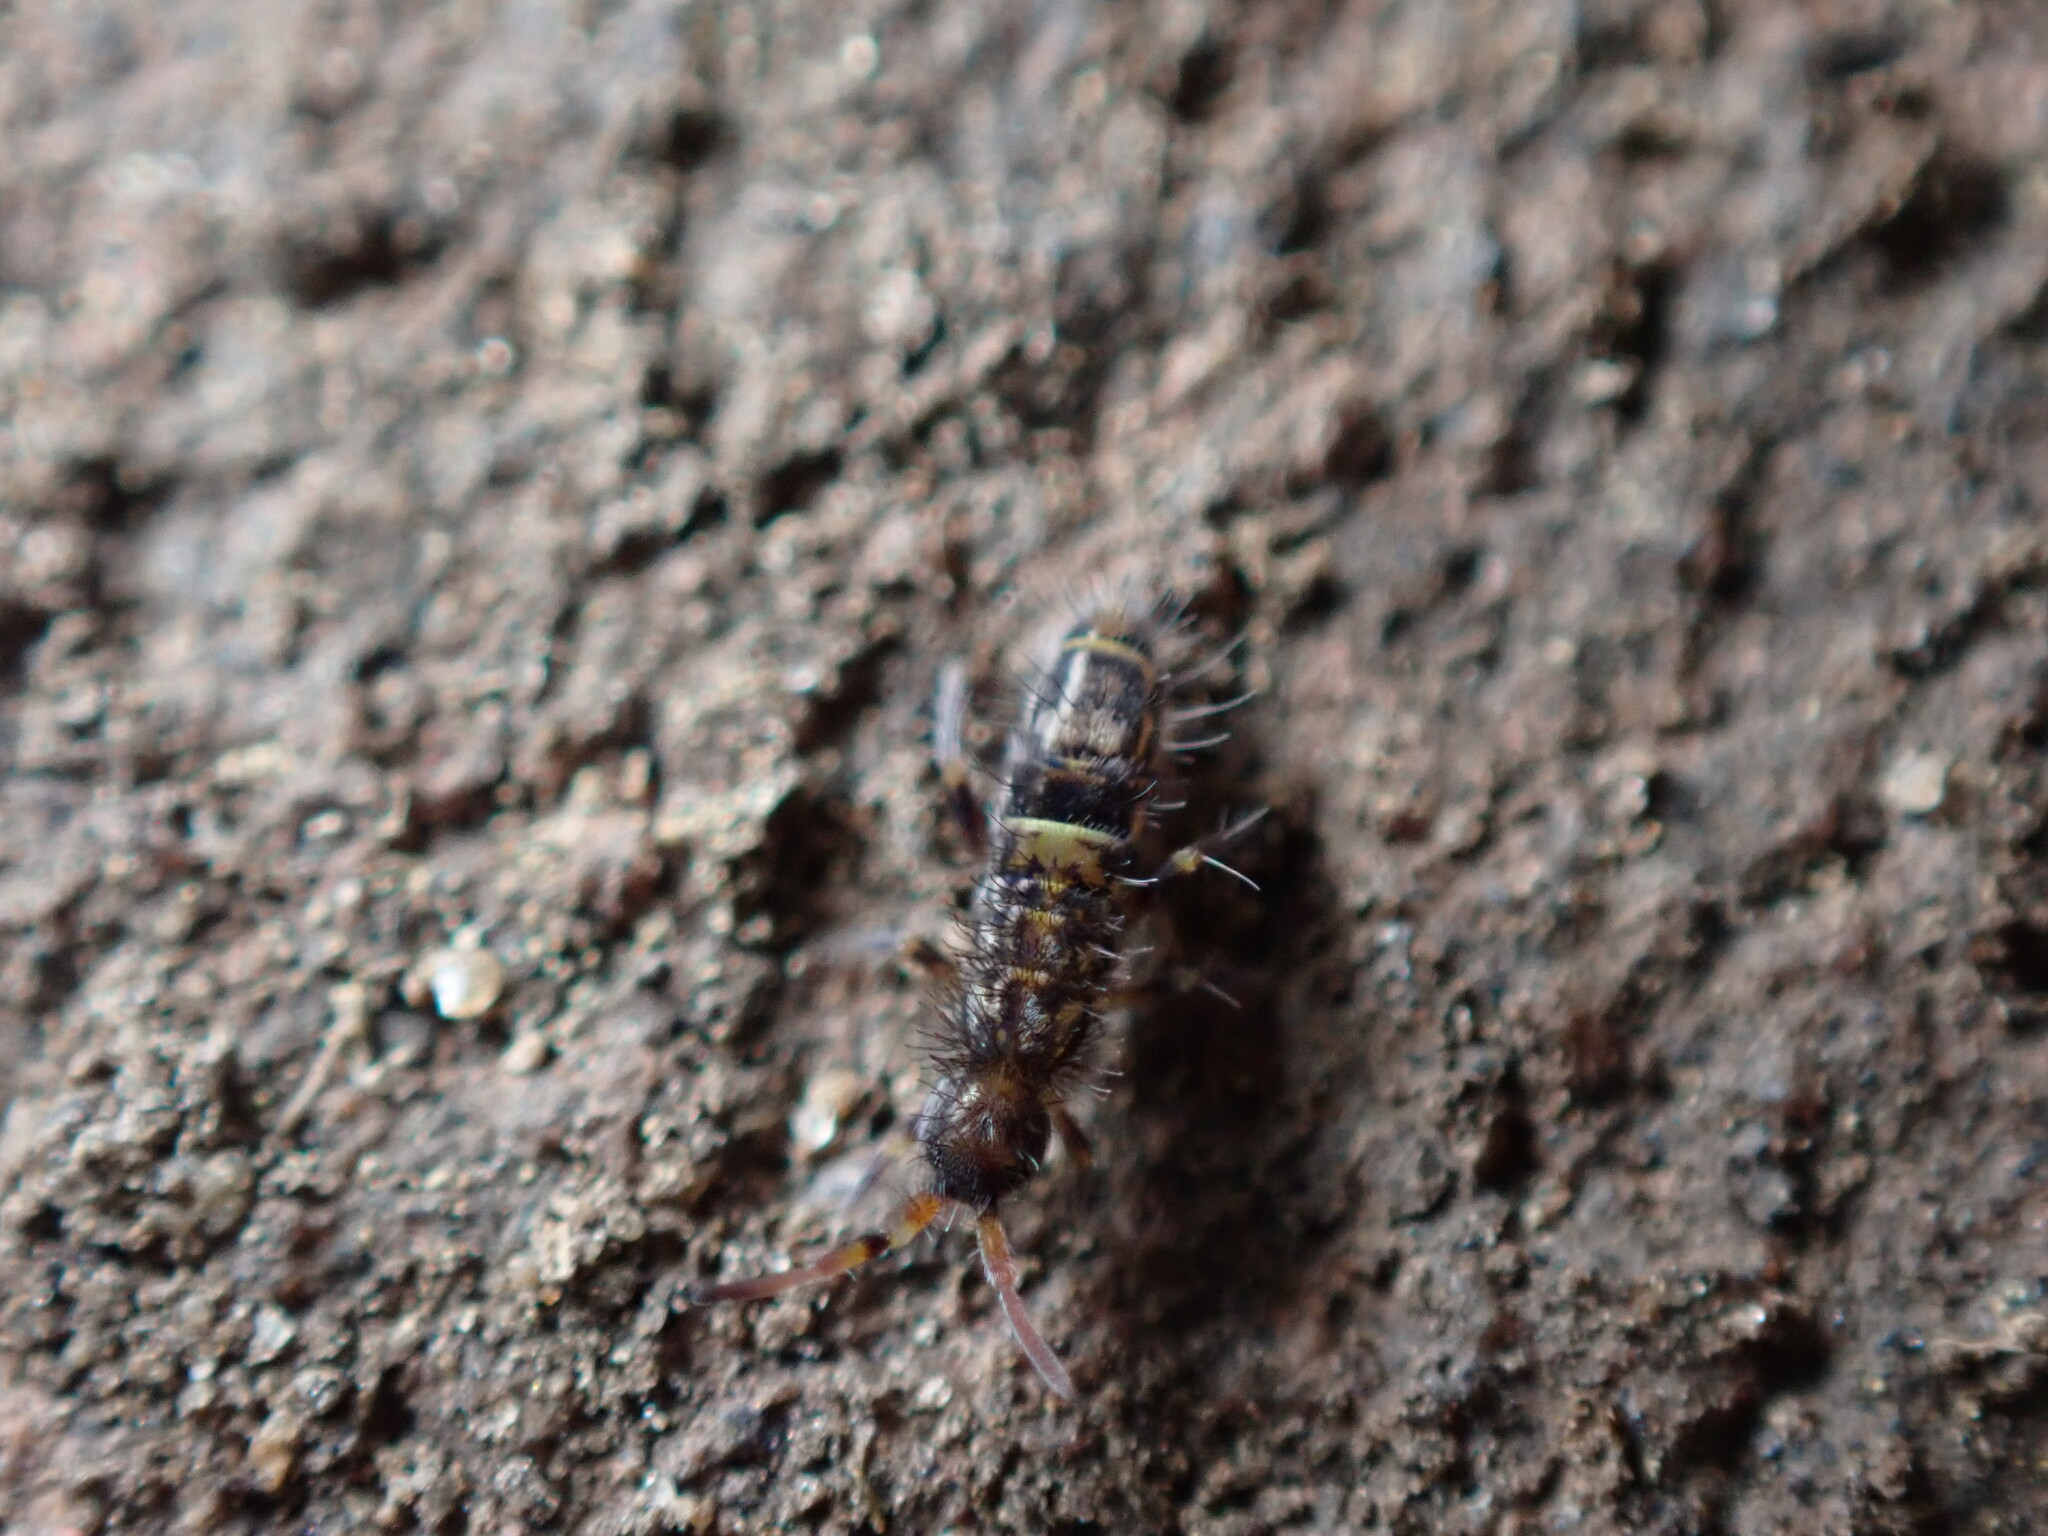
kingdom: Animalia
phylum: Arthropoda
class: Collembola
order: Entomobryomorpha
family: Orchesellidae
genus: Orchesella
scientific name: Orchesella cincta
